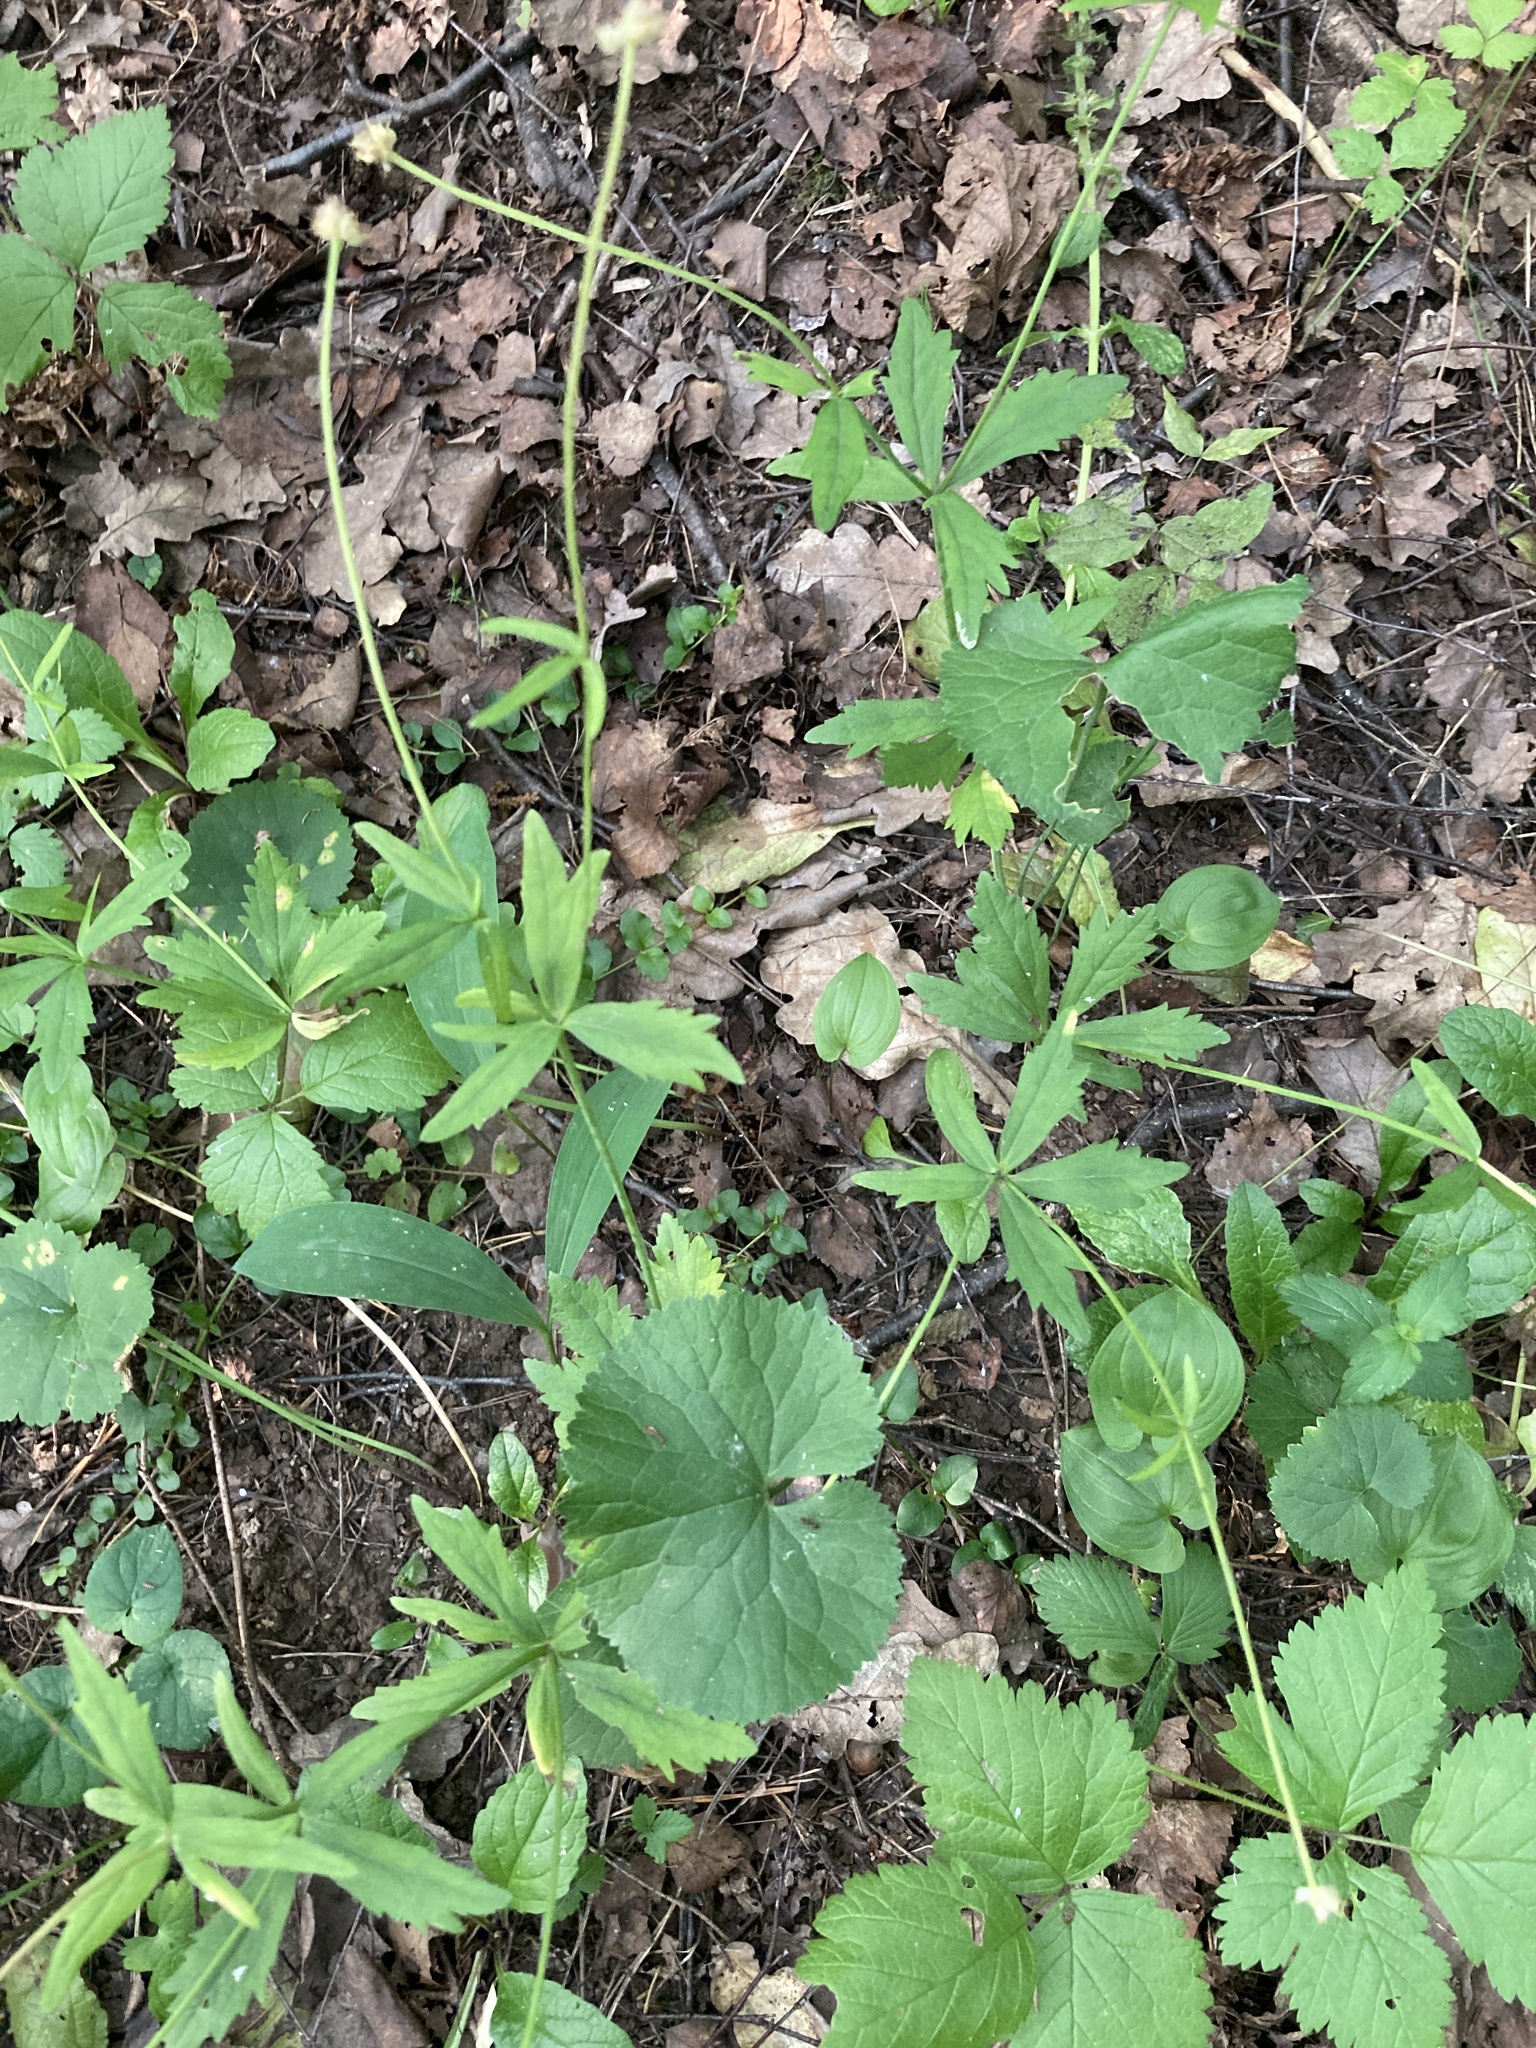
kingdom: Plantae
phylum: Tracheophyta
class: Magnoliopsida
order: Ranunculales
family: Ranunculaceae
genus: Ranunculus
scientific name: Ranunculus cassubicus
